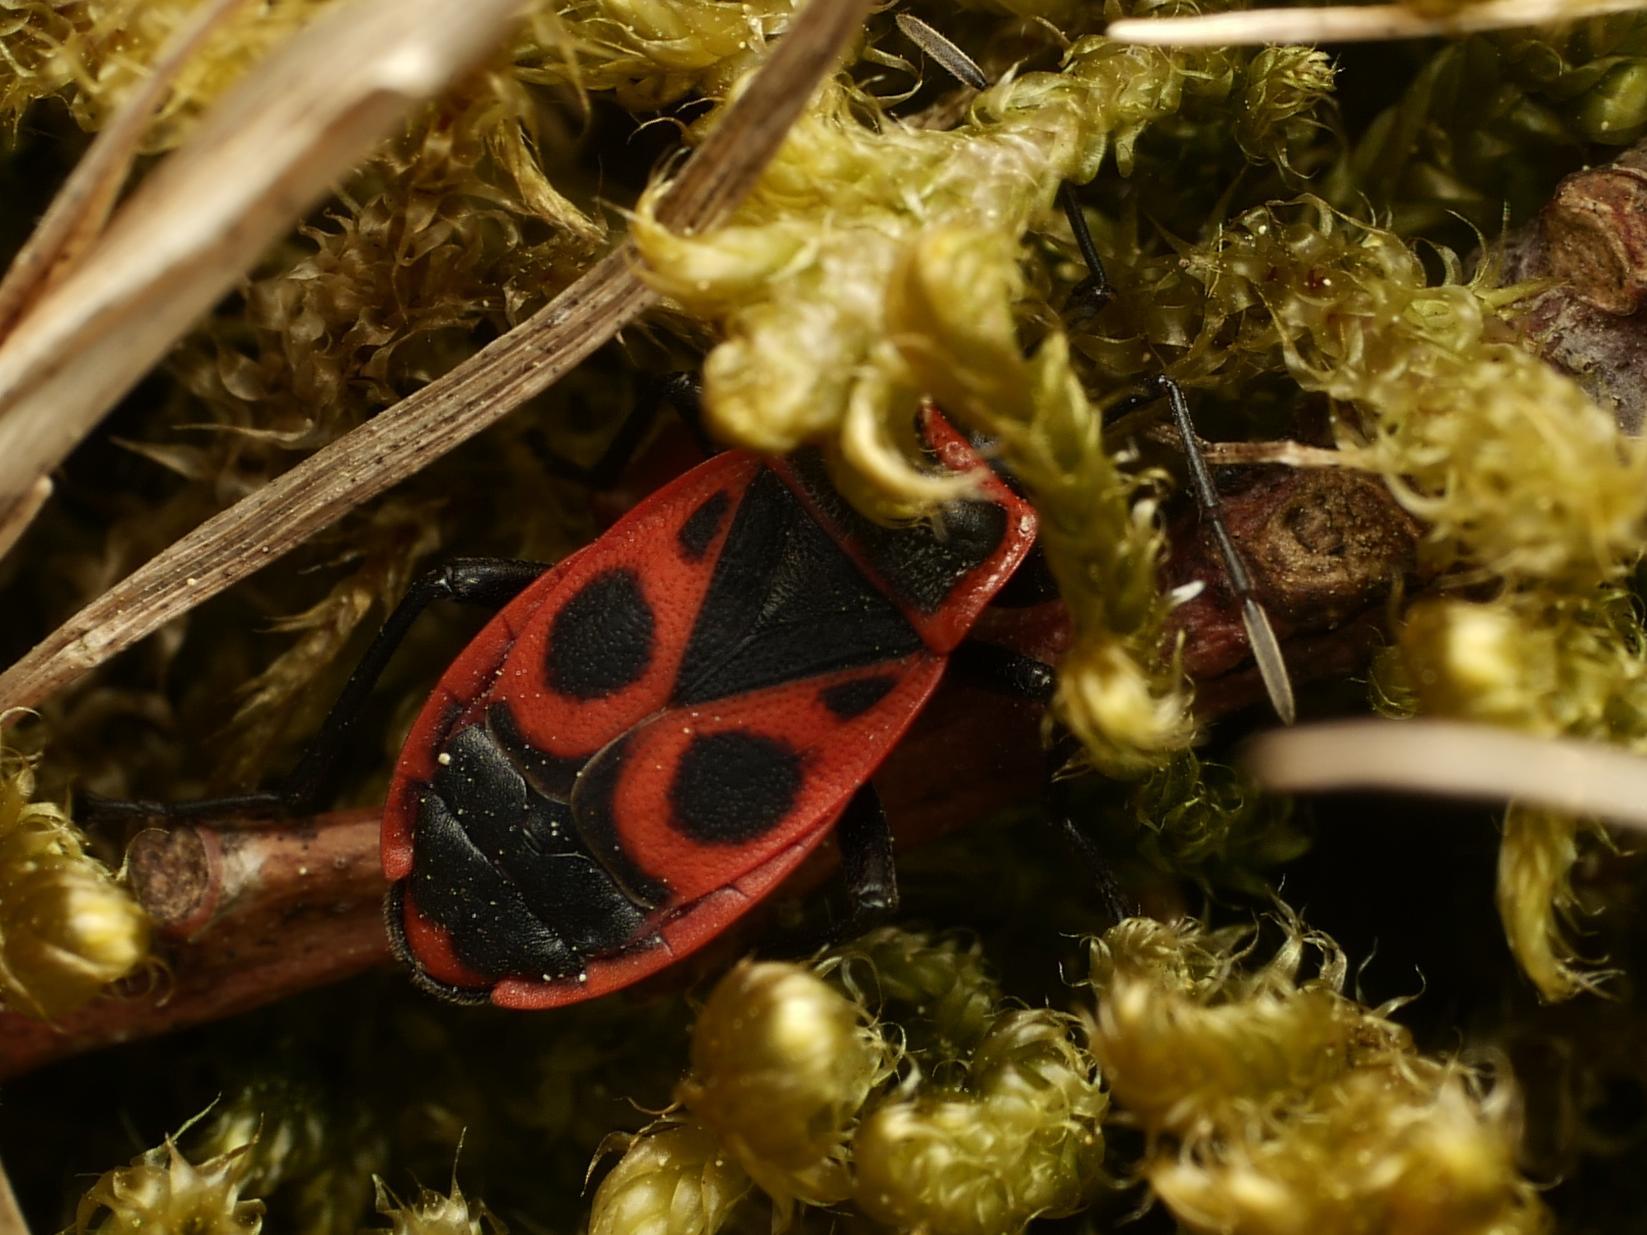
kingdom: Animalia
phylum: Arthropoda
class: Insecta
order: Hemiptera
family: Pyrrhocoridae
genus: Pyrrhocoris
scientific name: Pyrrhocoris apterus
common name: Firebug
